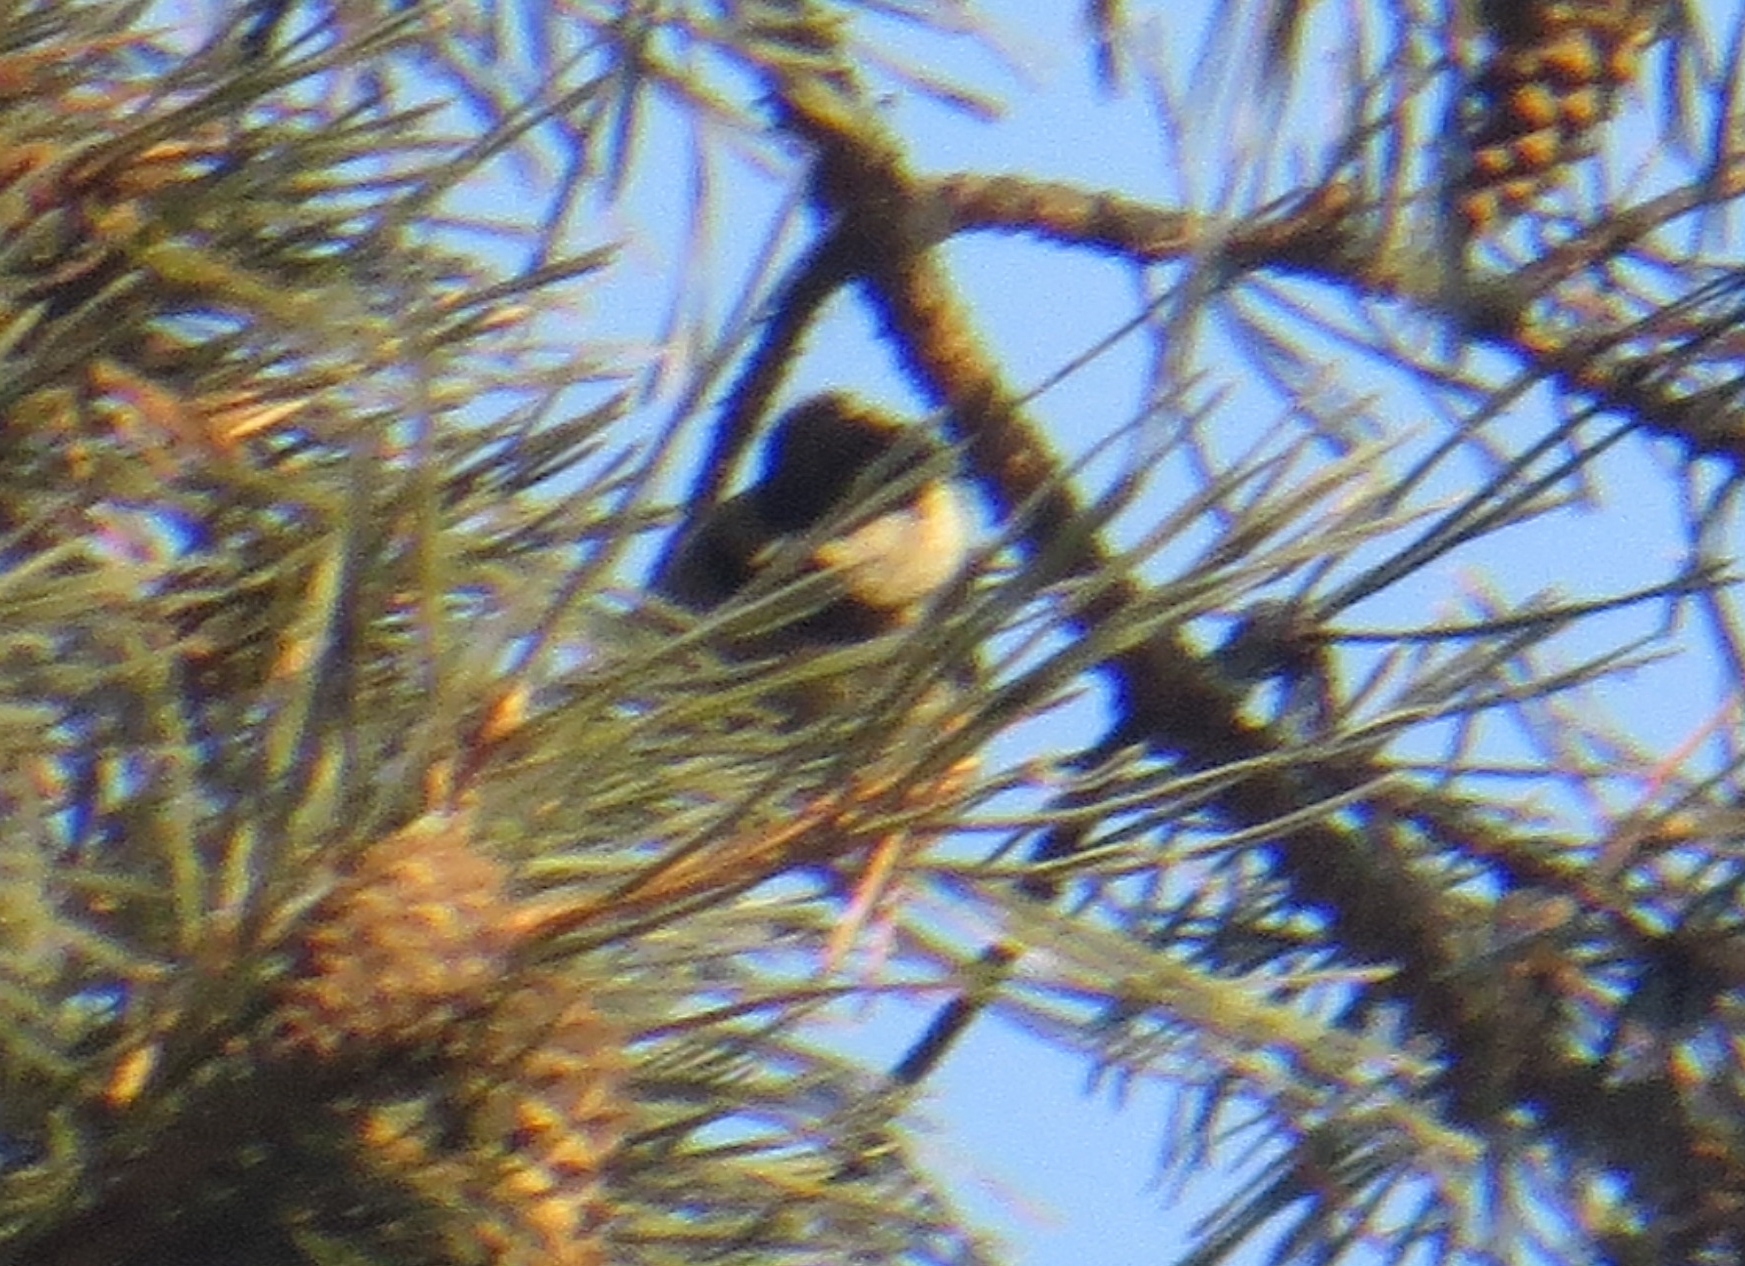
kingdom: Animalia
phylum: Chordata
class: Aves
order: Passeriformes
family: Paridae
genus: Periparus
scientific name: Periparus ater
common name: Coal tit
